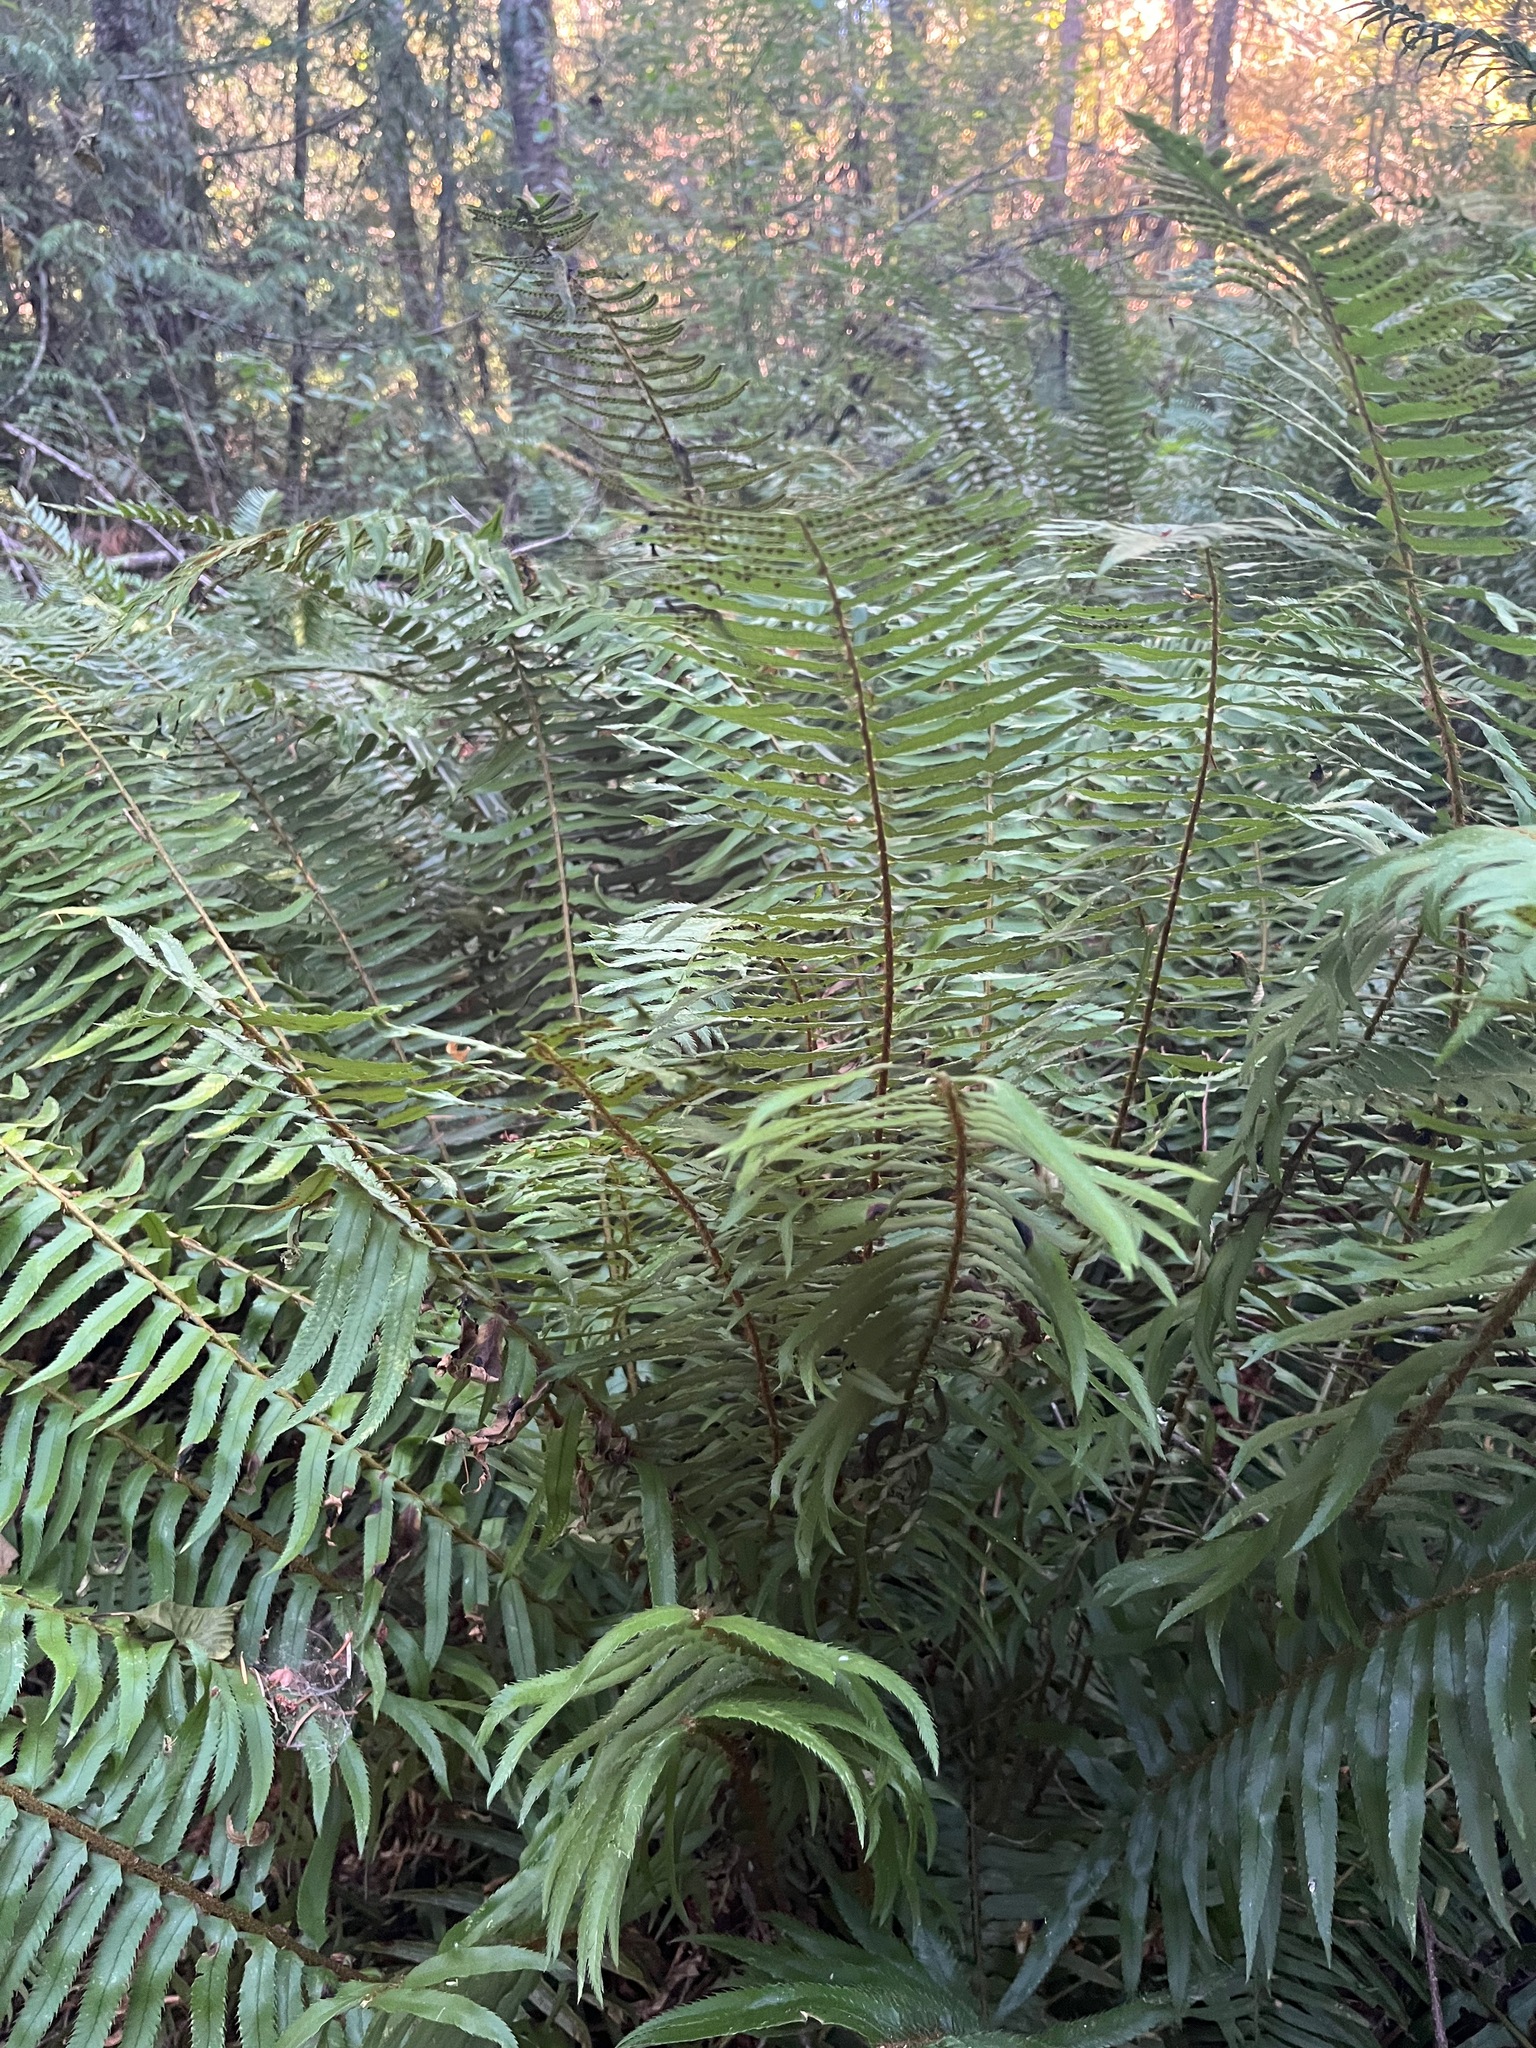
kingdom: Plantae
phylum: Tracheophyta
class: Polypodiopsida
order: Polypodiales
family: Dryopteridaceae
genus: Polystichum
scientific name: Polystichum munitum
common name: Western sword-fern
